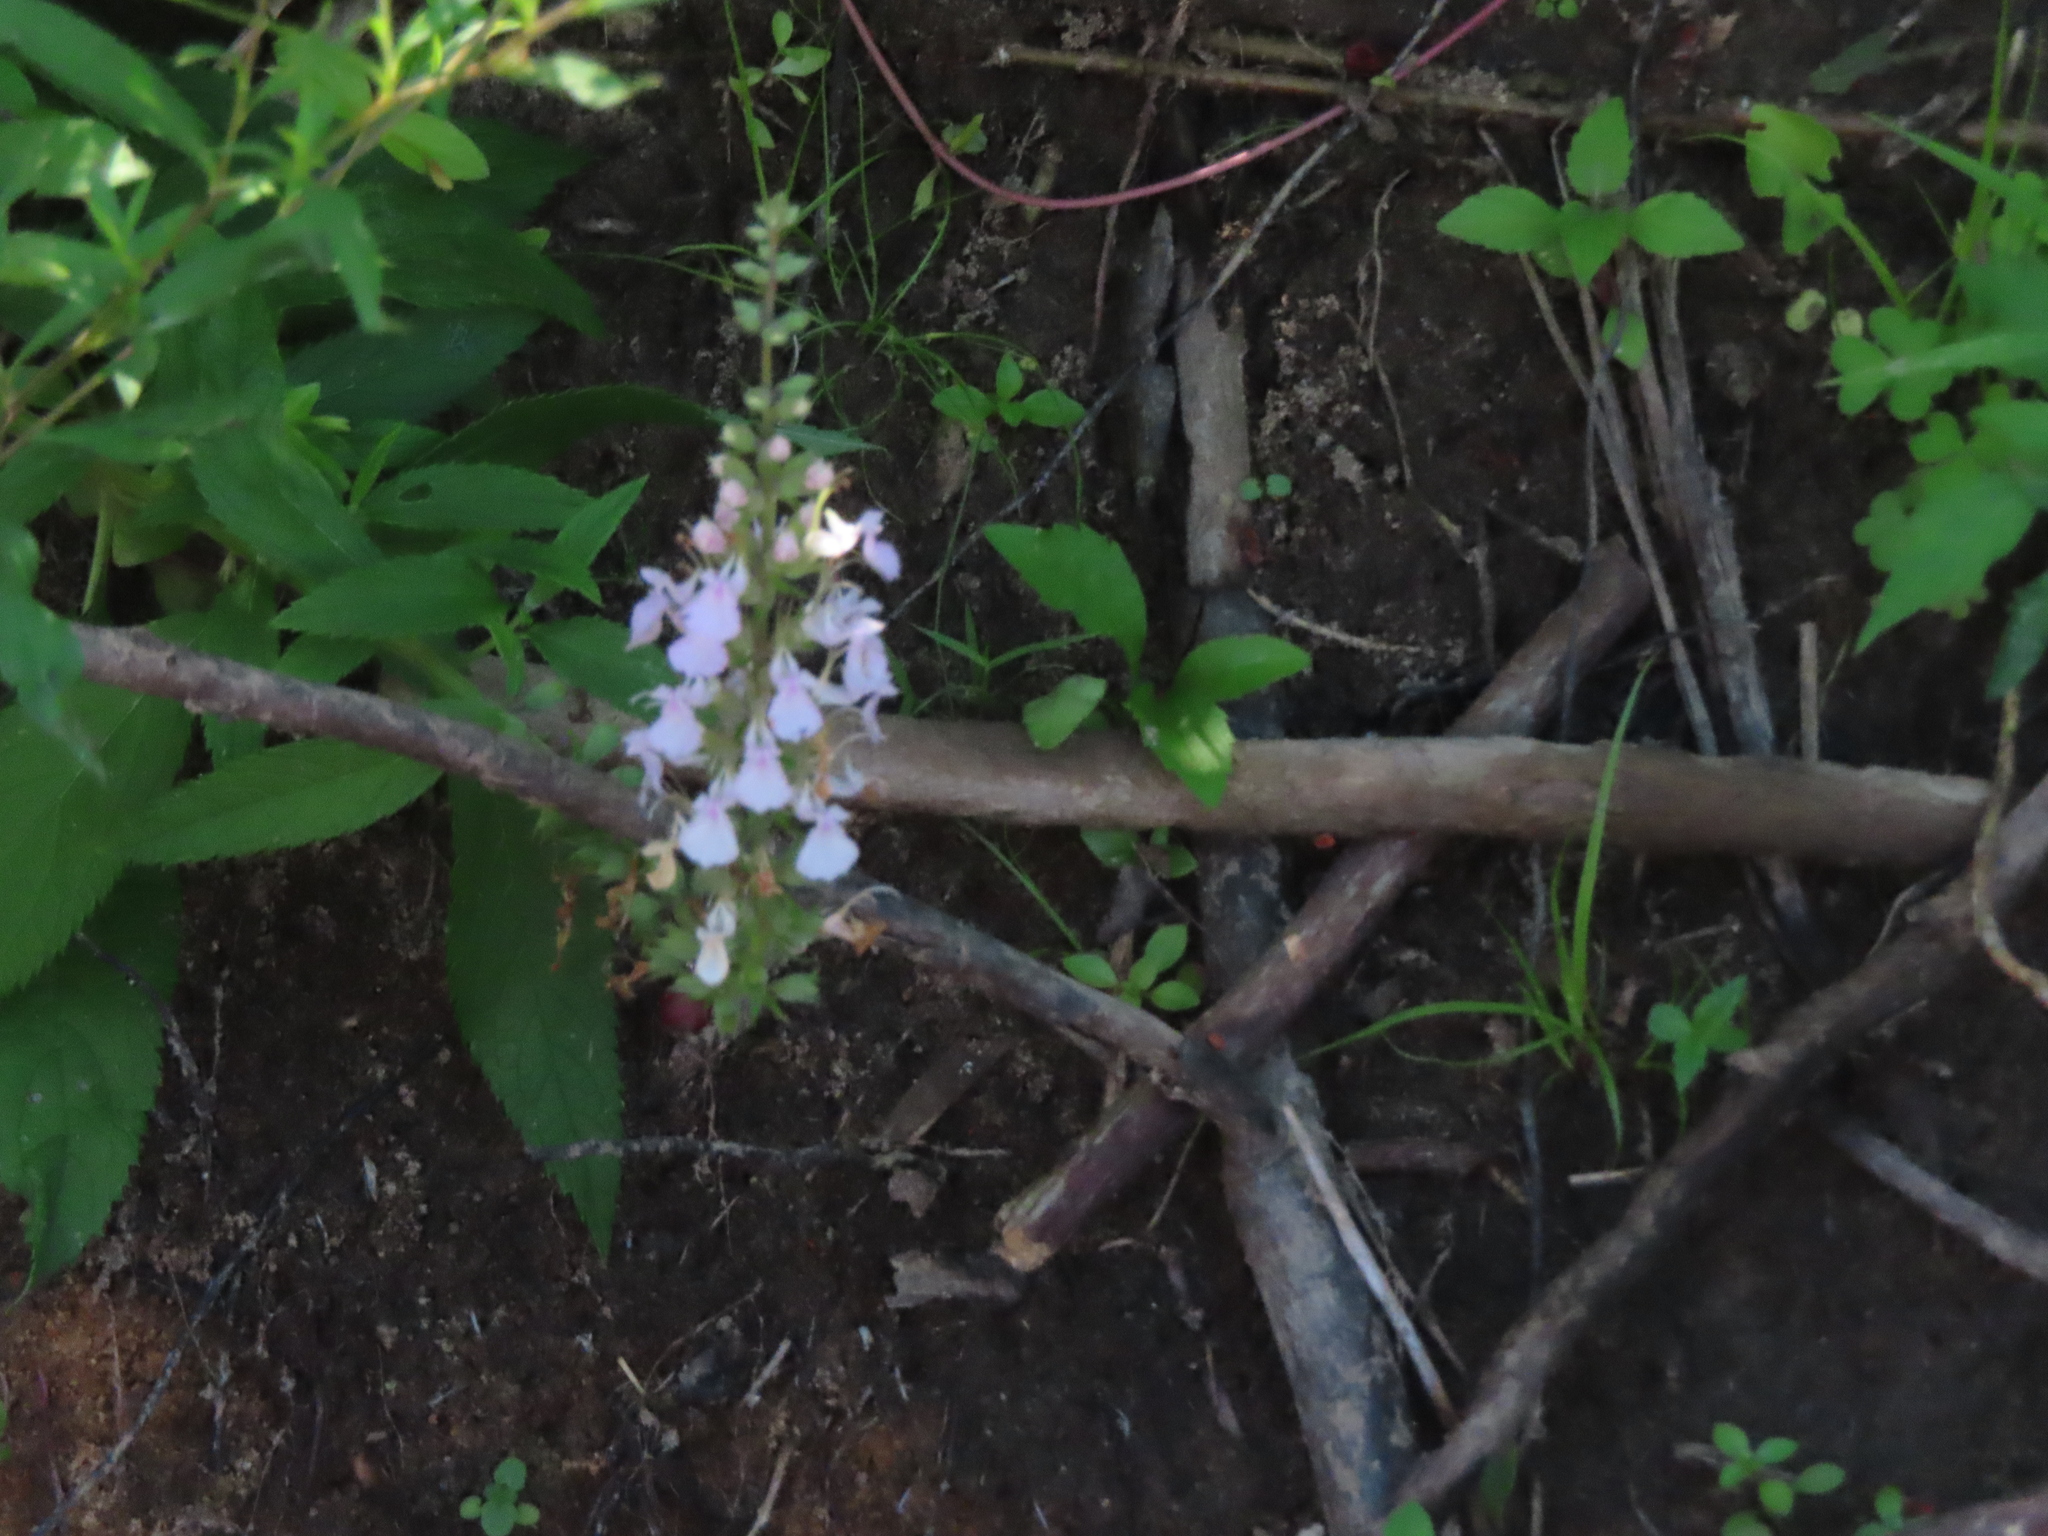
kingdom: Plantae
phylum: Tracheophyta
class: Magnoliopsida
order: Lamiales
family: Lamiaceae
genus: Teucrium
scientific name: Teucrium canadense
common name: American germander
